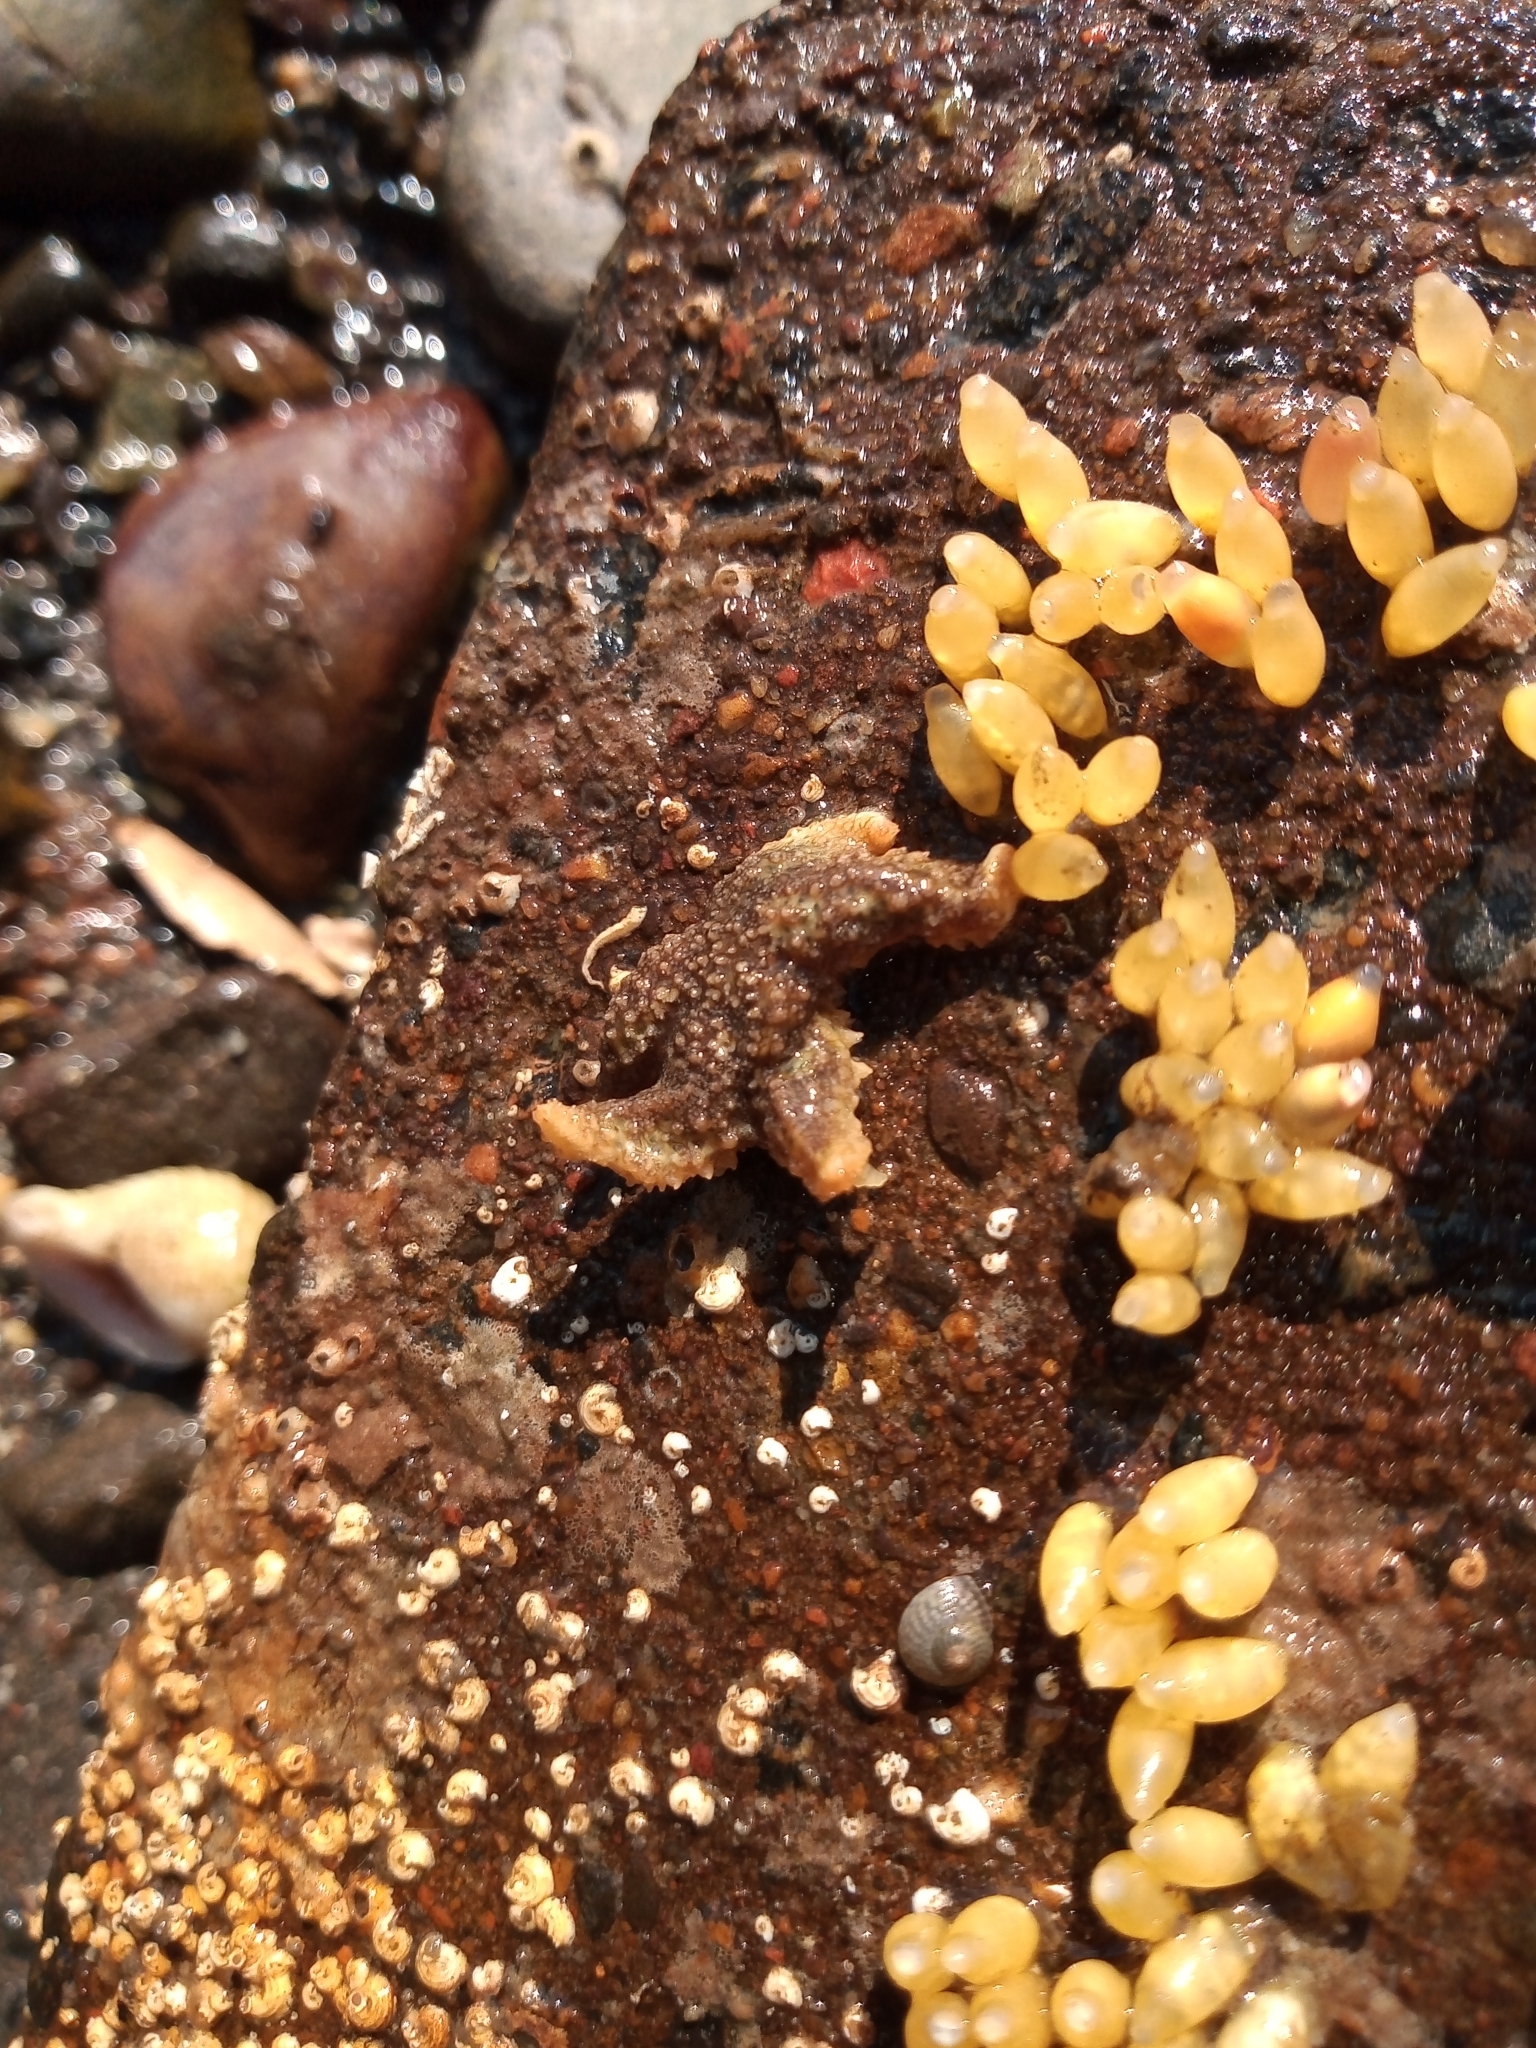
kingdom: Animalia
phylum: Echinodermata
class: Asteroidea
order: Forcipulatida
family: Asteriidae
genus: Asterias
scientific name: Asterias rubens
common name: Common starfish
